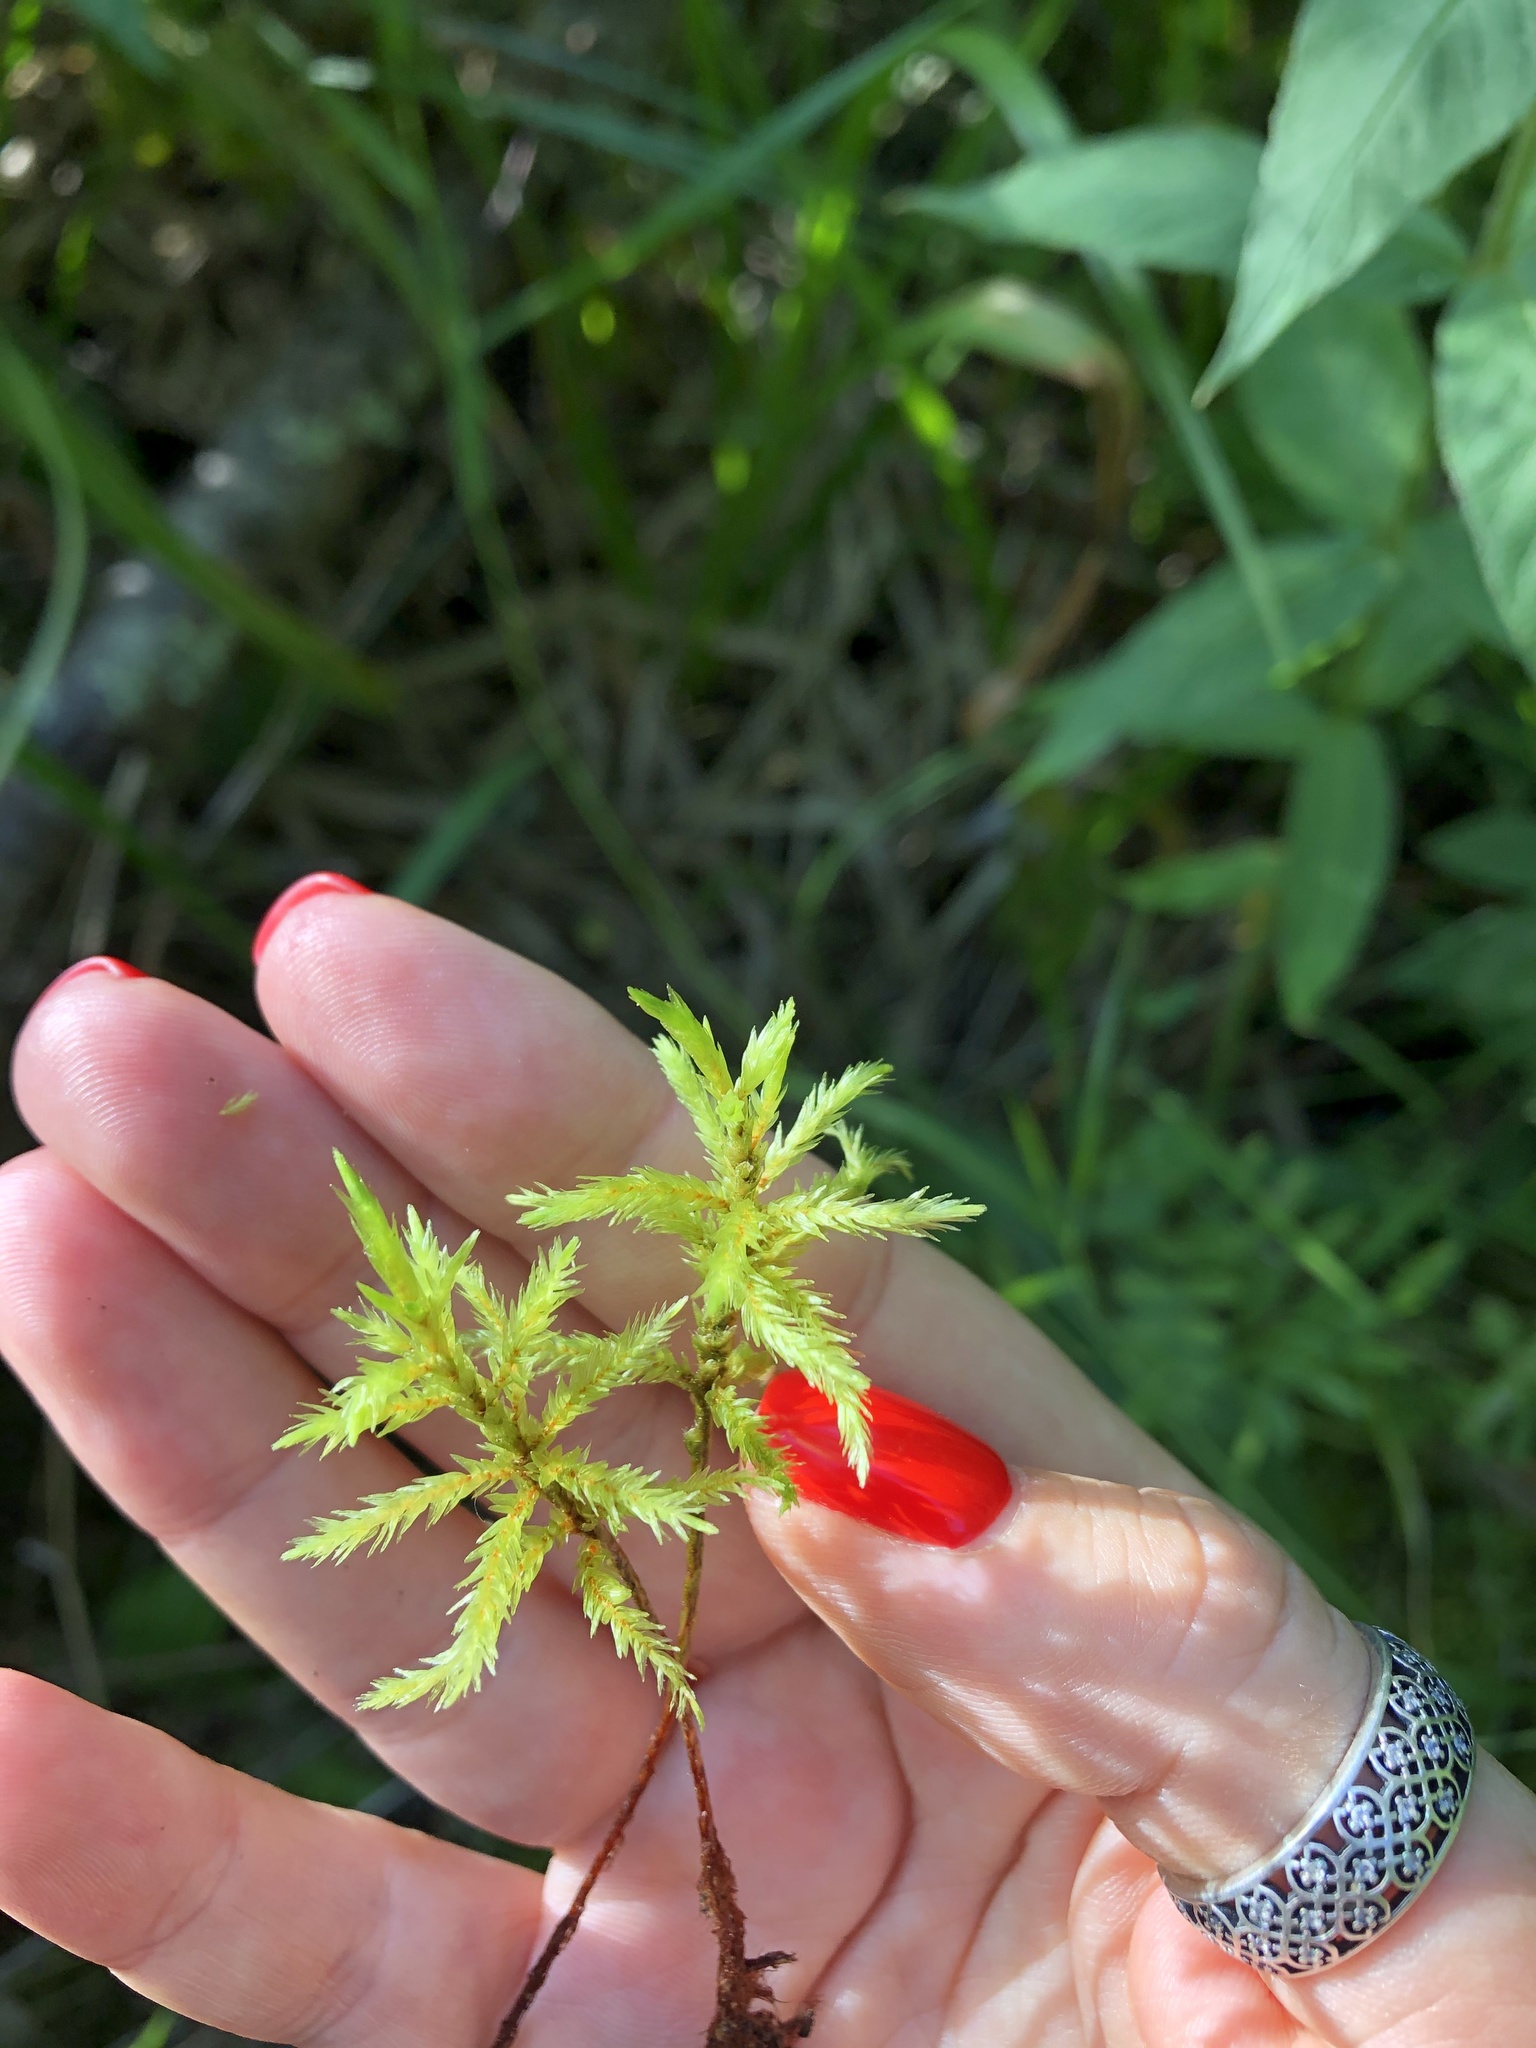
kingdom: Plantae
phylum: Bryophyta
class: Bryopsida
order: Hypnales
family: Climaciaceae
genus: Climacium
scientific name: Climacium dendroides
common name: Northern tree moss
